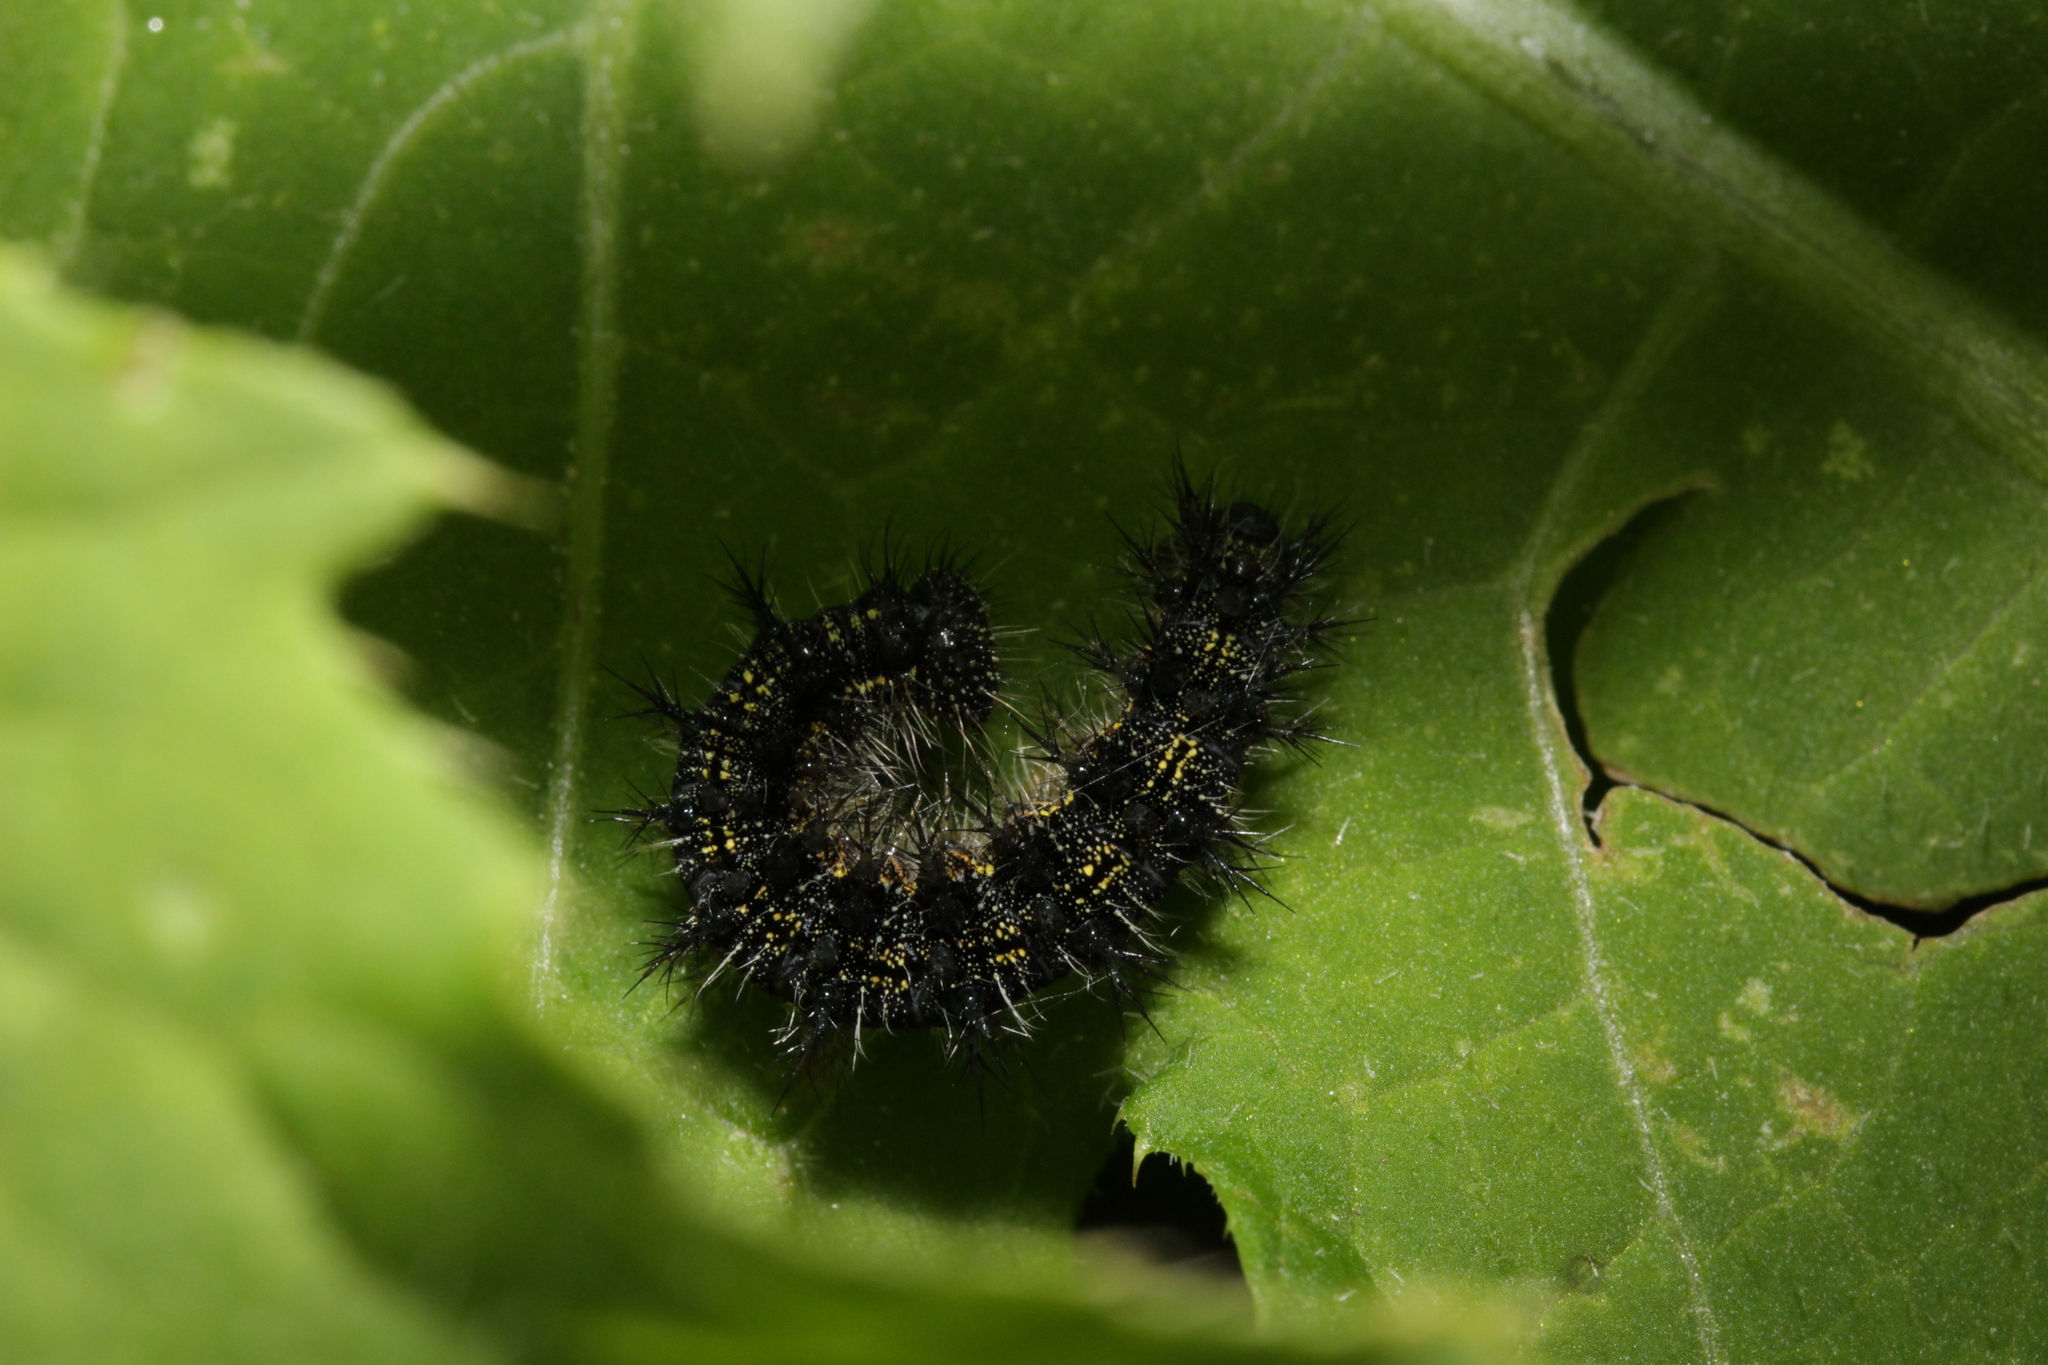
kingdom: Animalia
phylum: Arthropoda
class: Insecta
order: Lepidoptera
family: Nymphalidae
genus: Aglais
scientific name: Aglais urticae
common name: Small tortoiseshell
